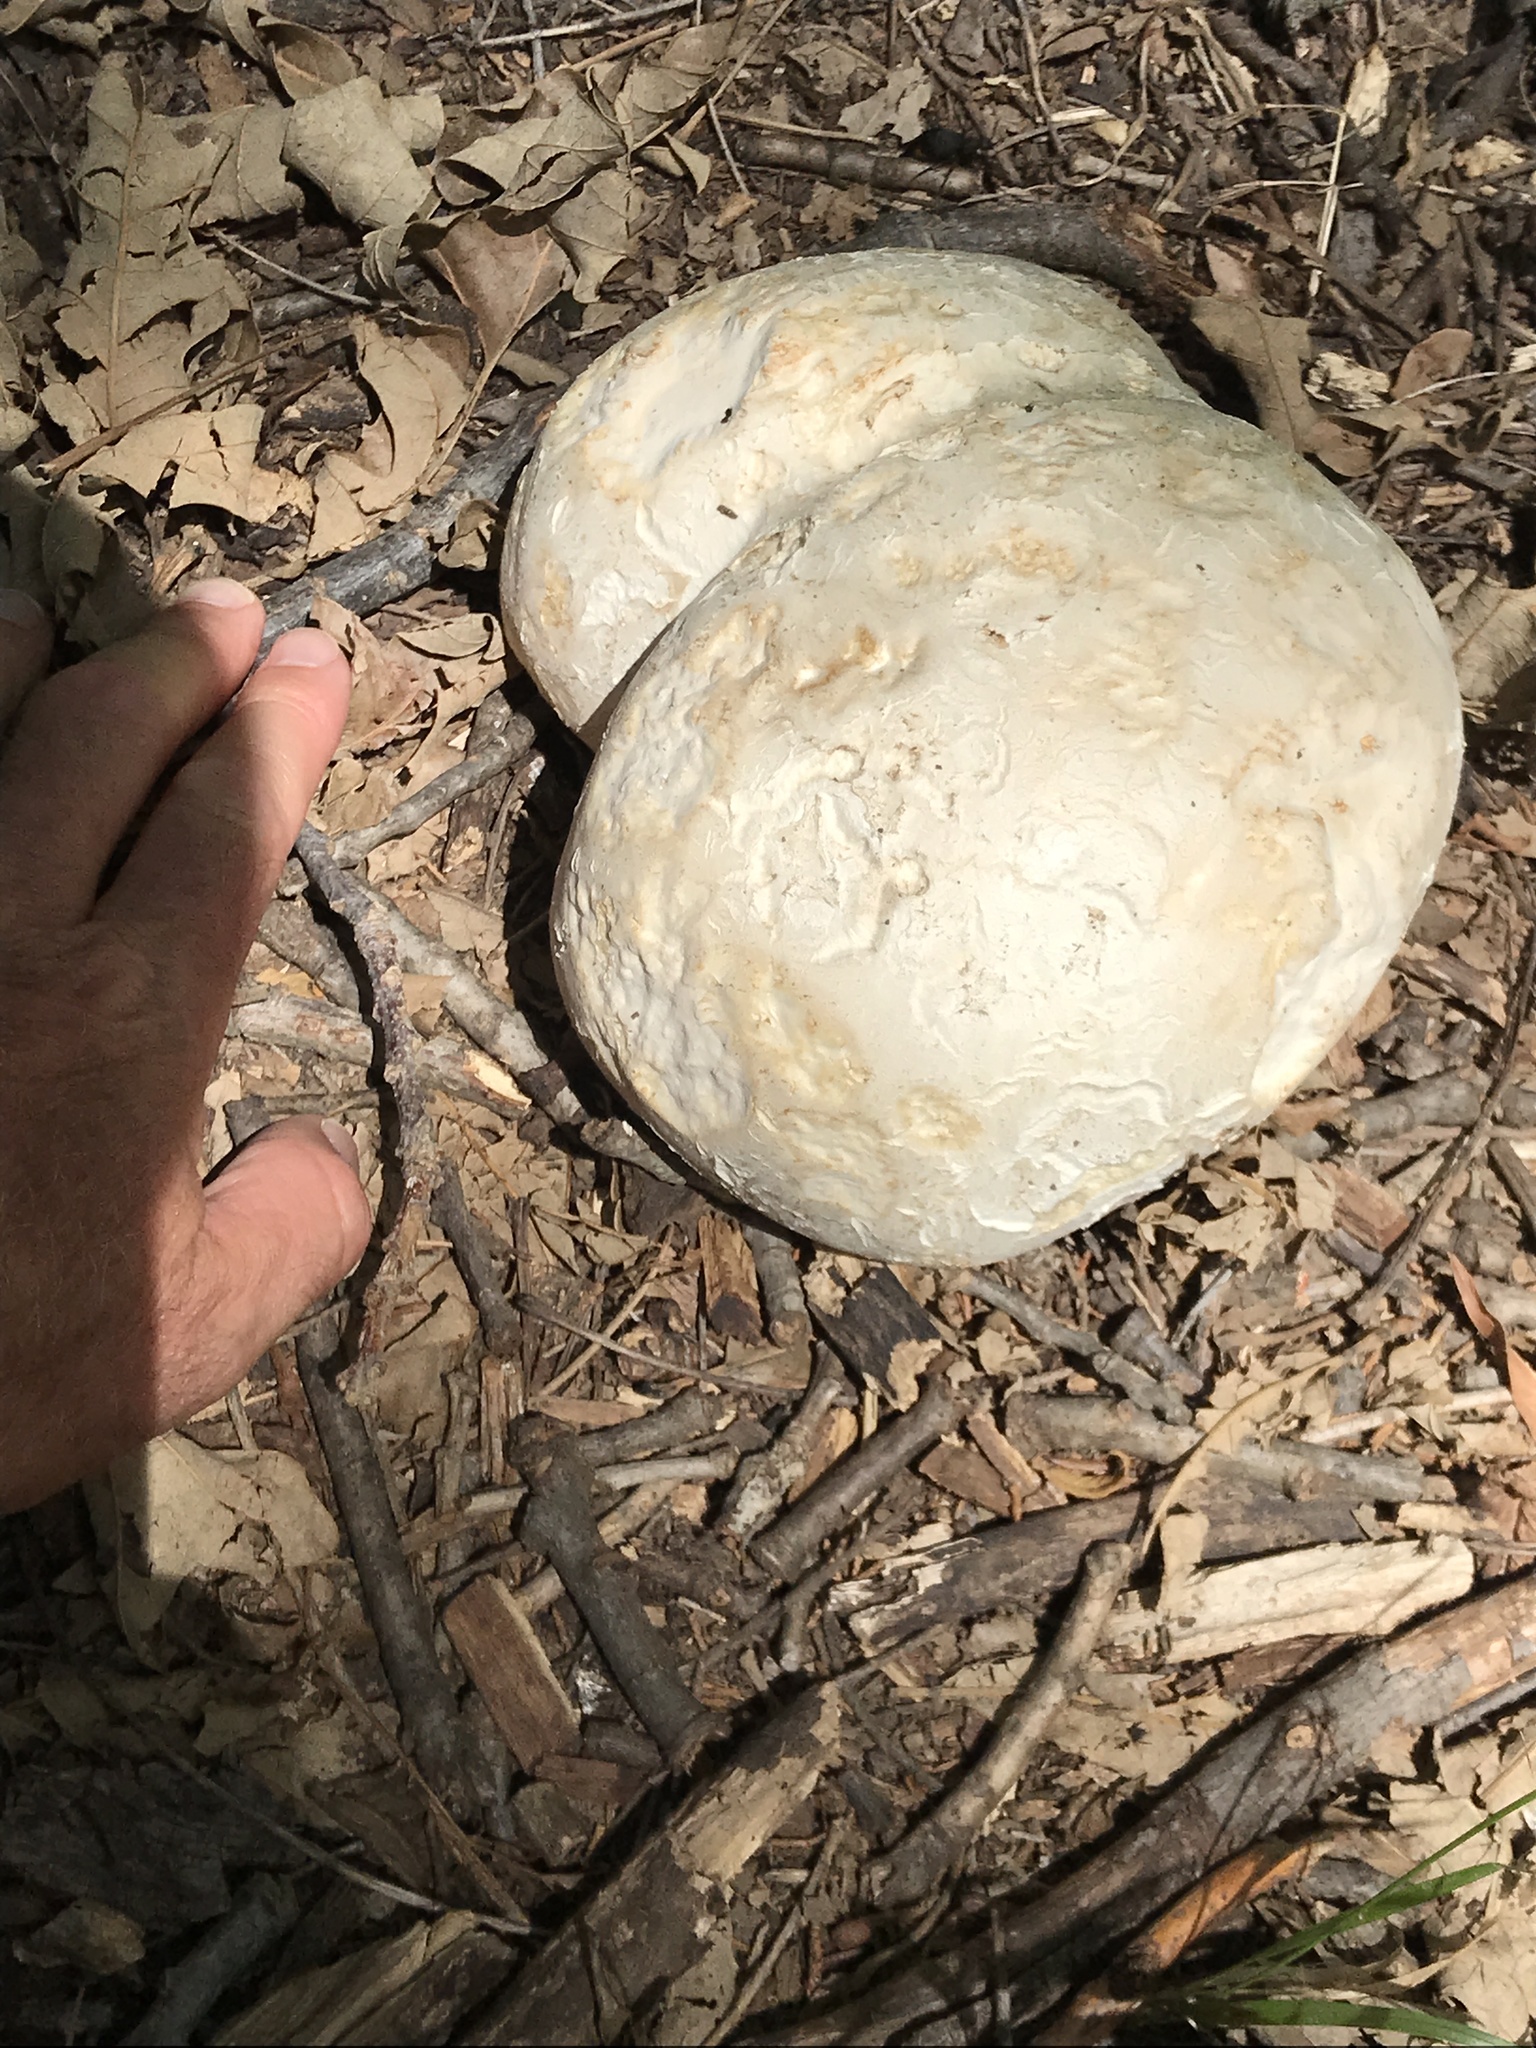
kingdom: Fungi
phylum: Basidiomycota
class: Agaricomycetes
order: Agaricales
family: Lycoperdaceae
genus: Calvatia
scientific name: Calvatia gigantea
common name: Giant puffball
